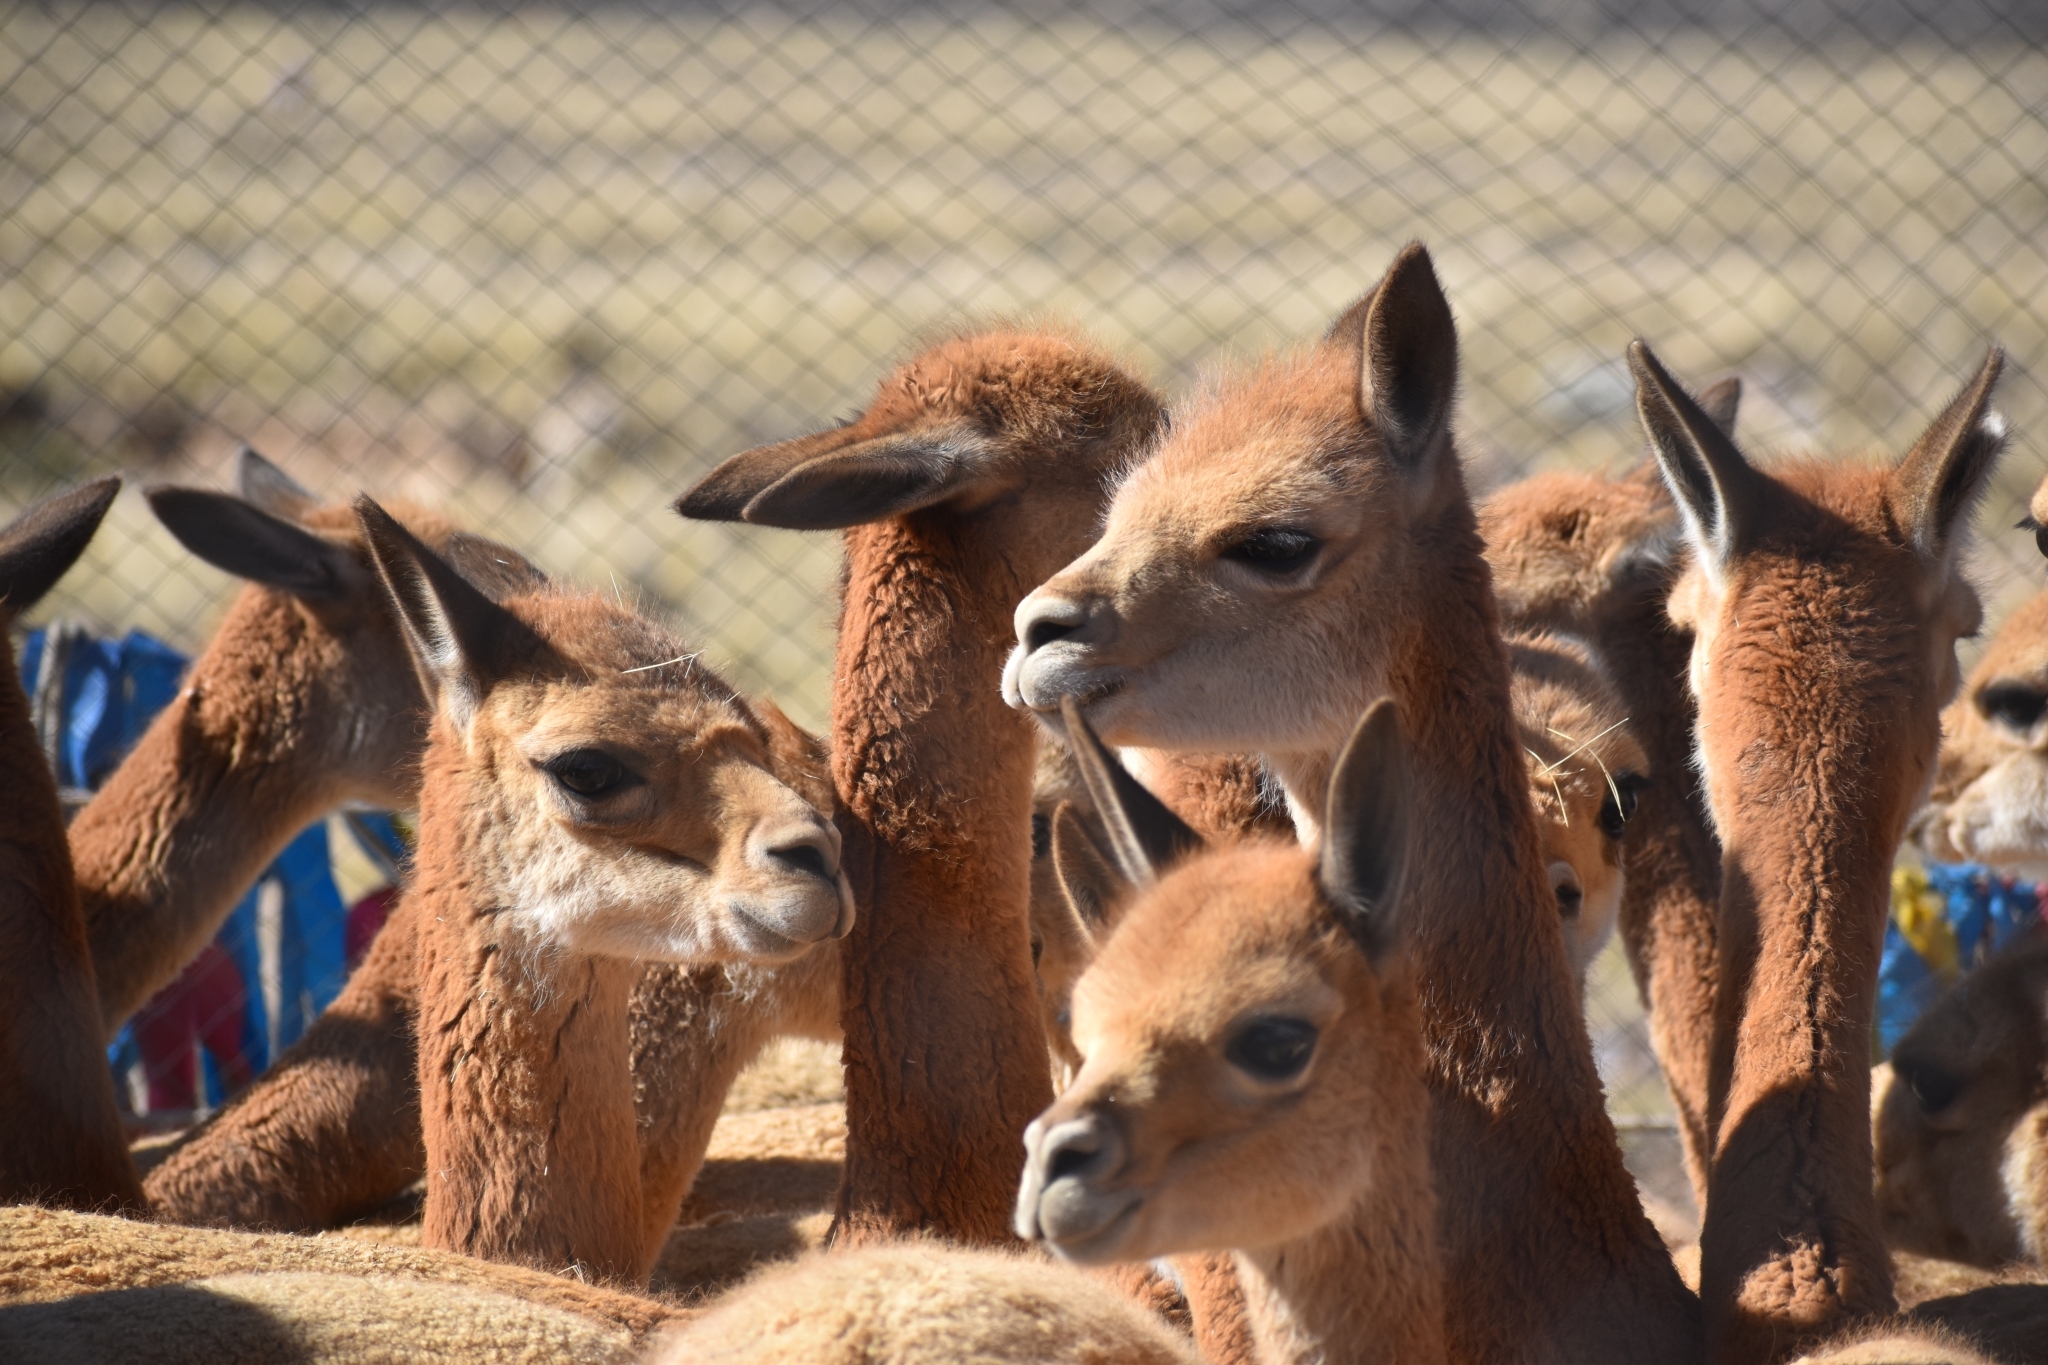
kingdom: Animalia
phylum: Chordata
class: Mammalia
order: Artiodactyla
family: Camelidae
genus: Vicugna
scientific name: Vicugna vicugna
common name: Vicugna
